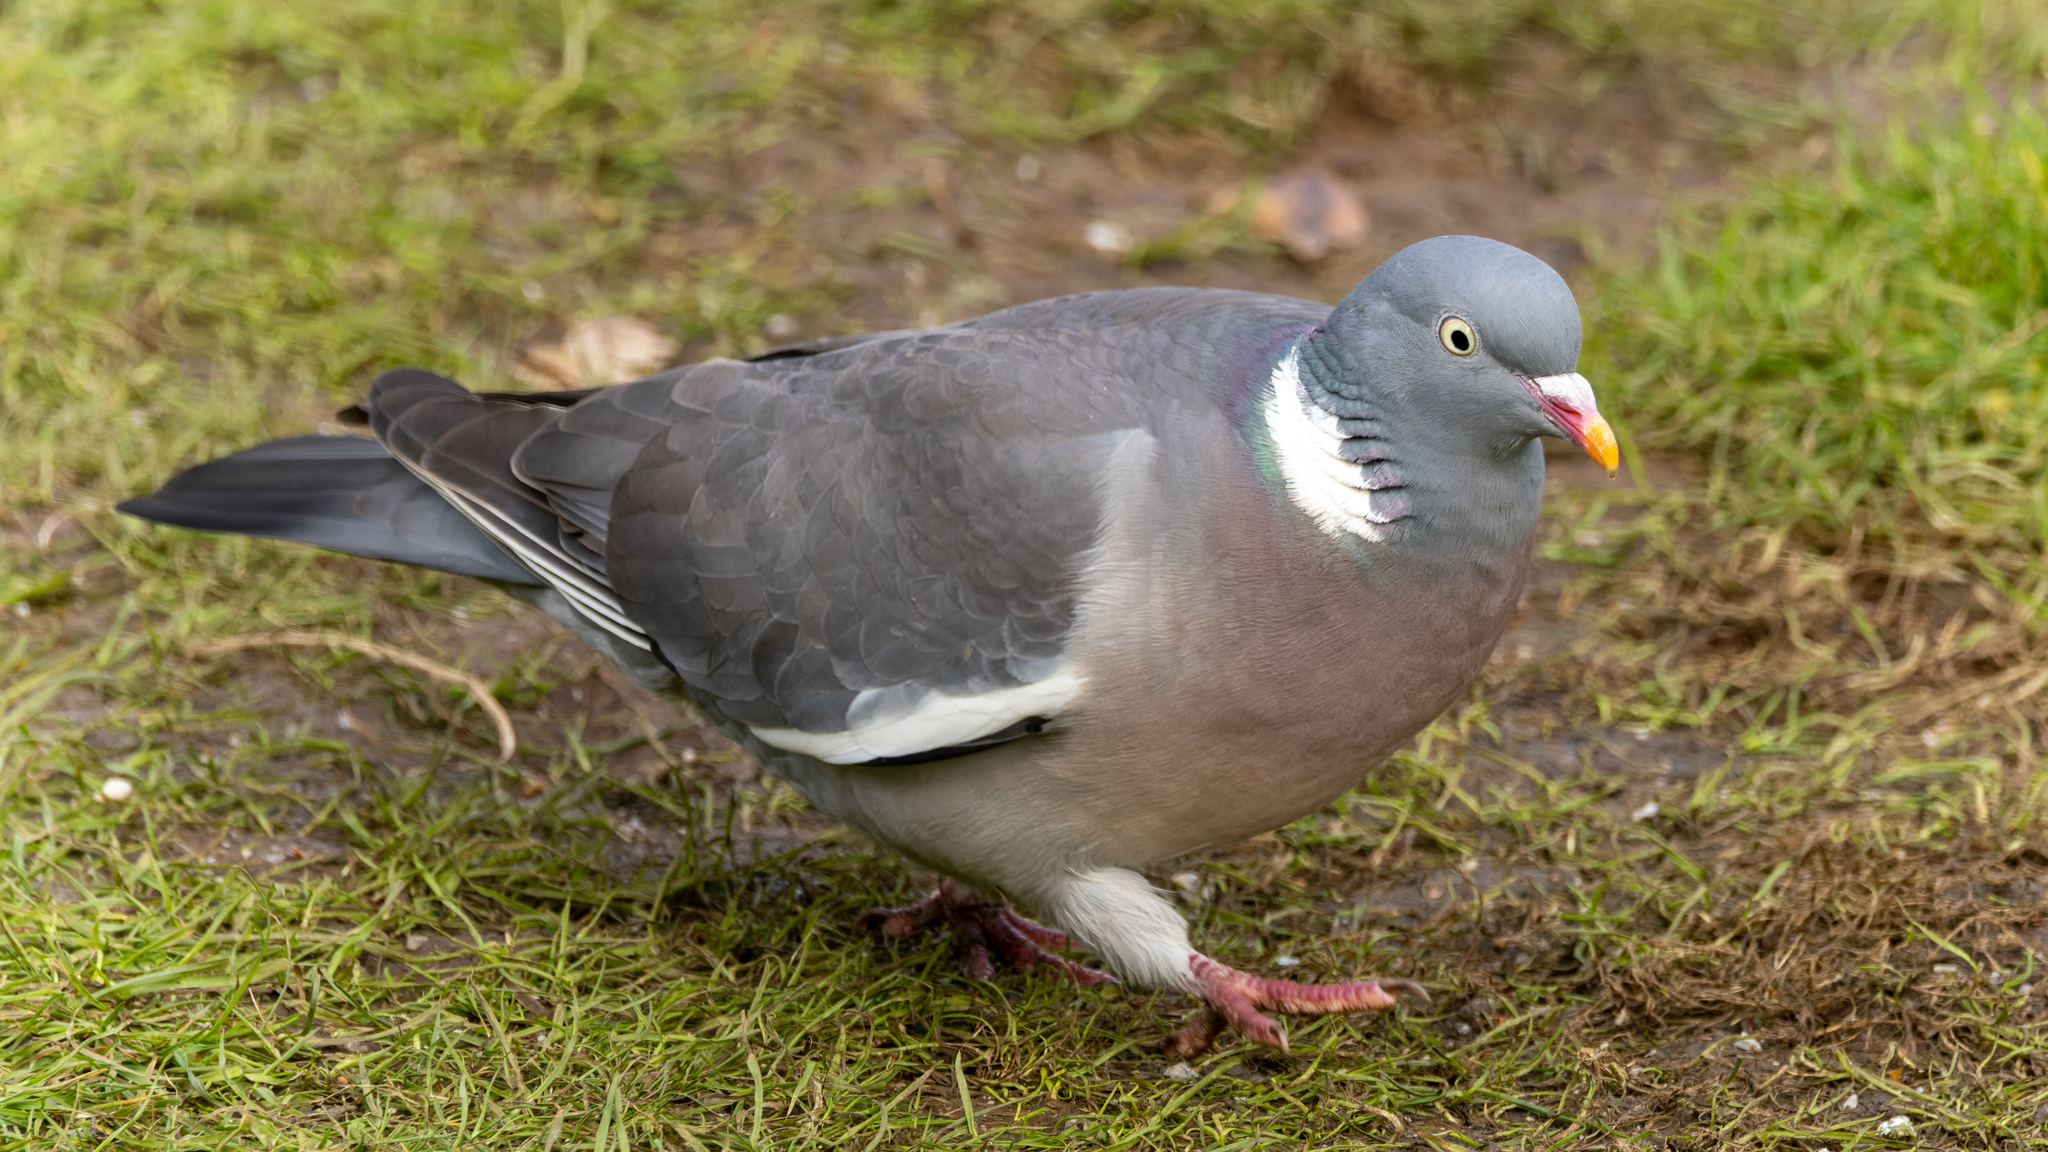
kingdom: Animalia
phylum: Chordata
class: Aves
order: Columbiformes
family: Columbidae
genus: Columba
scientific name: Columba palumbus
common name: Common wood pigeon
